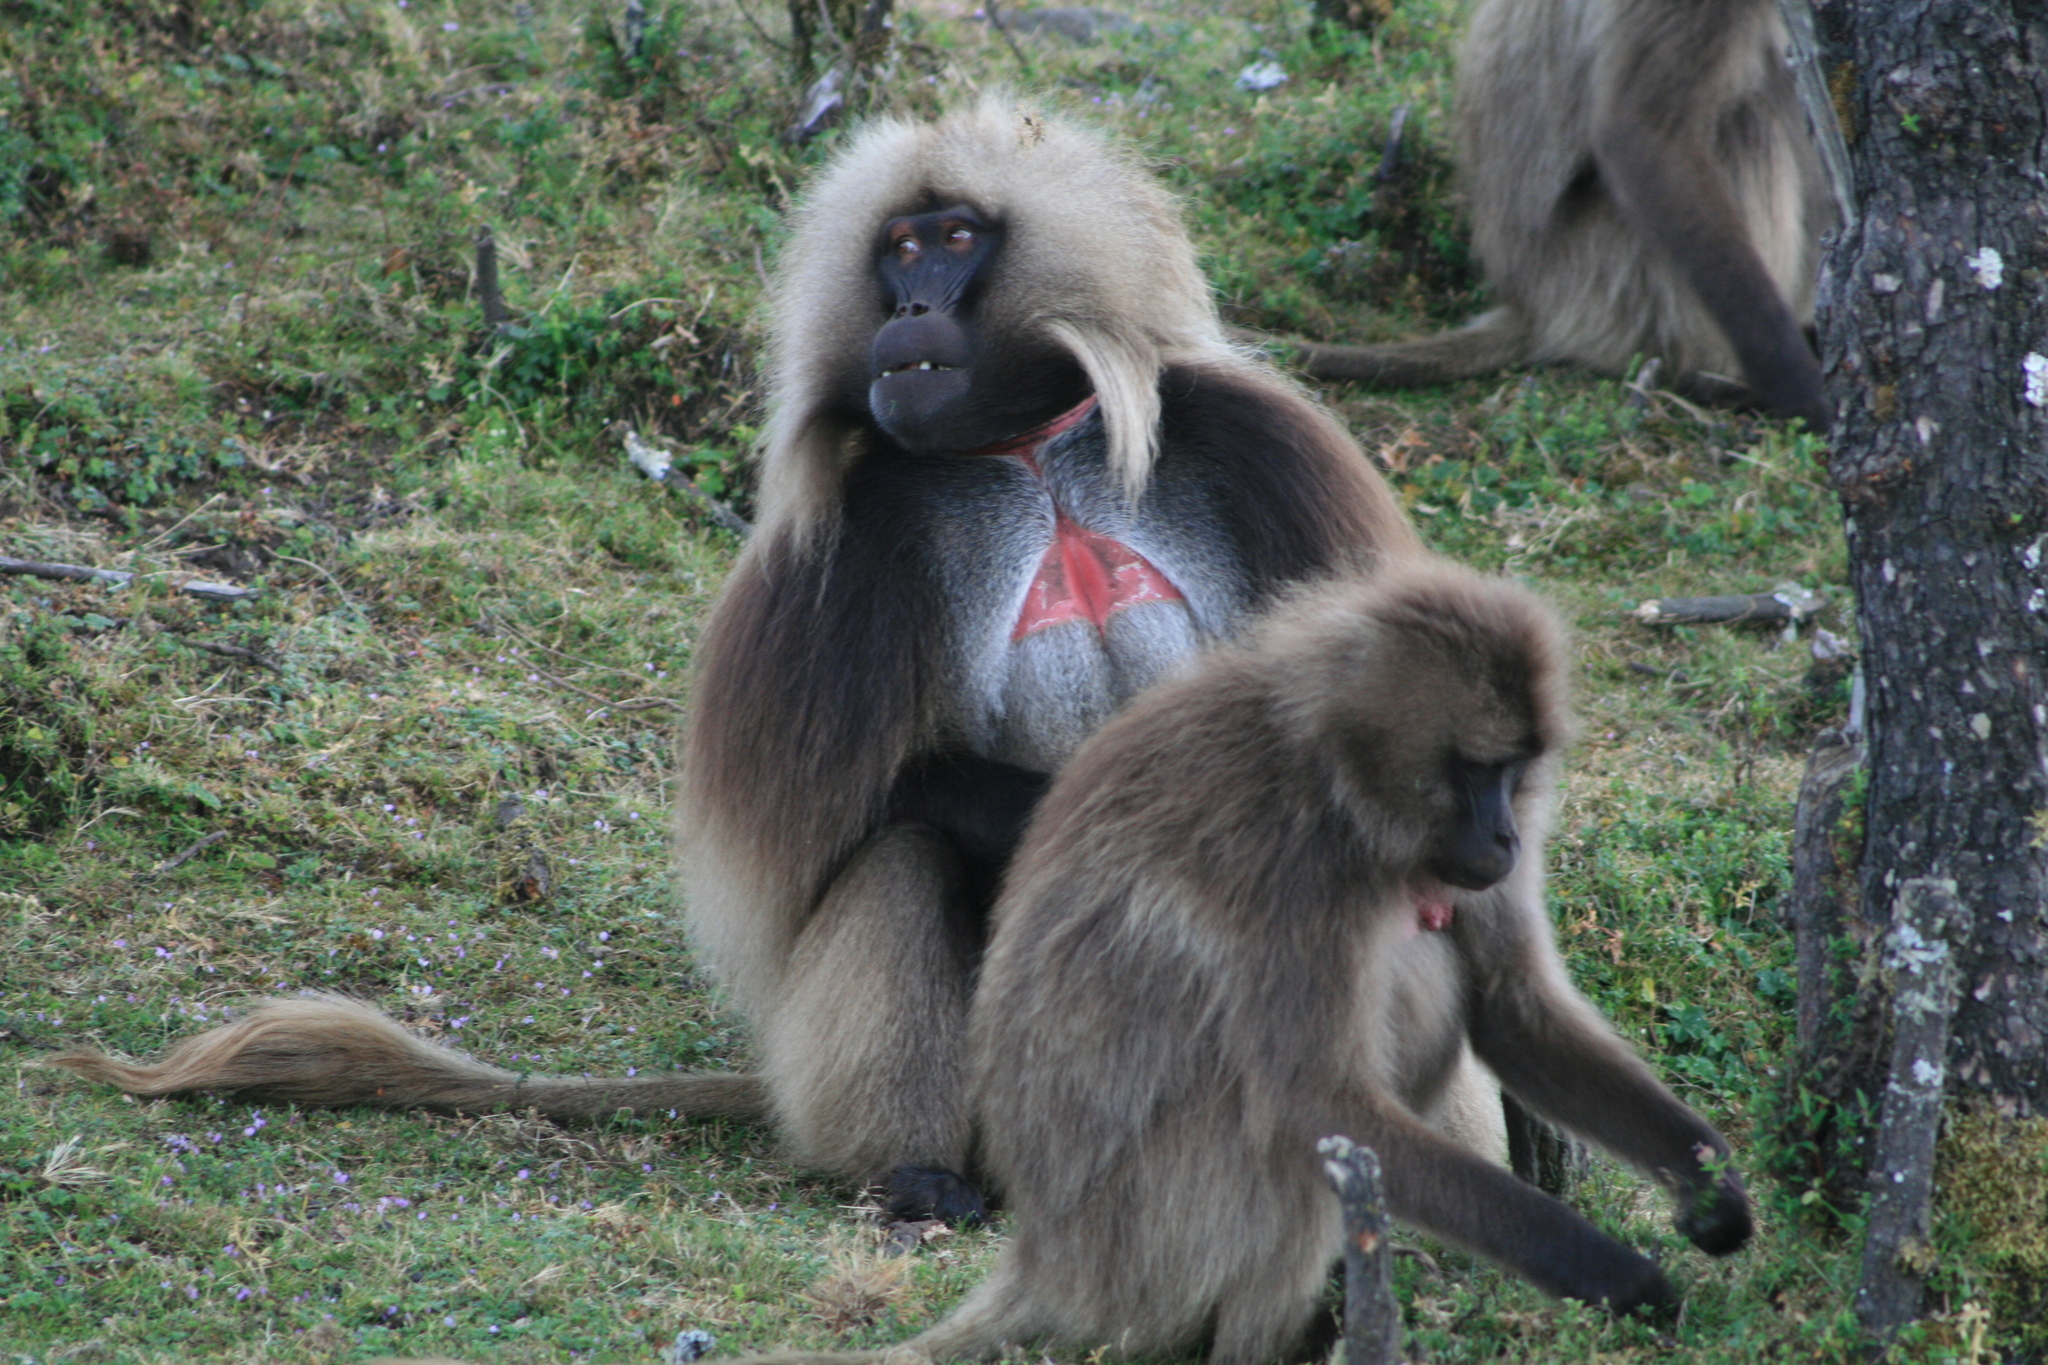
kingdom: Animalia
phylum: Chordata
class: Mammalia
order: Primates
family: Cercopithecidae
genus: Theropithecus
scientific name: Theropithecus gelada
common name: Gelada
